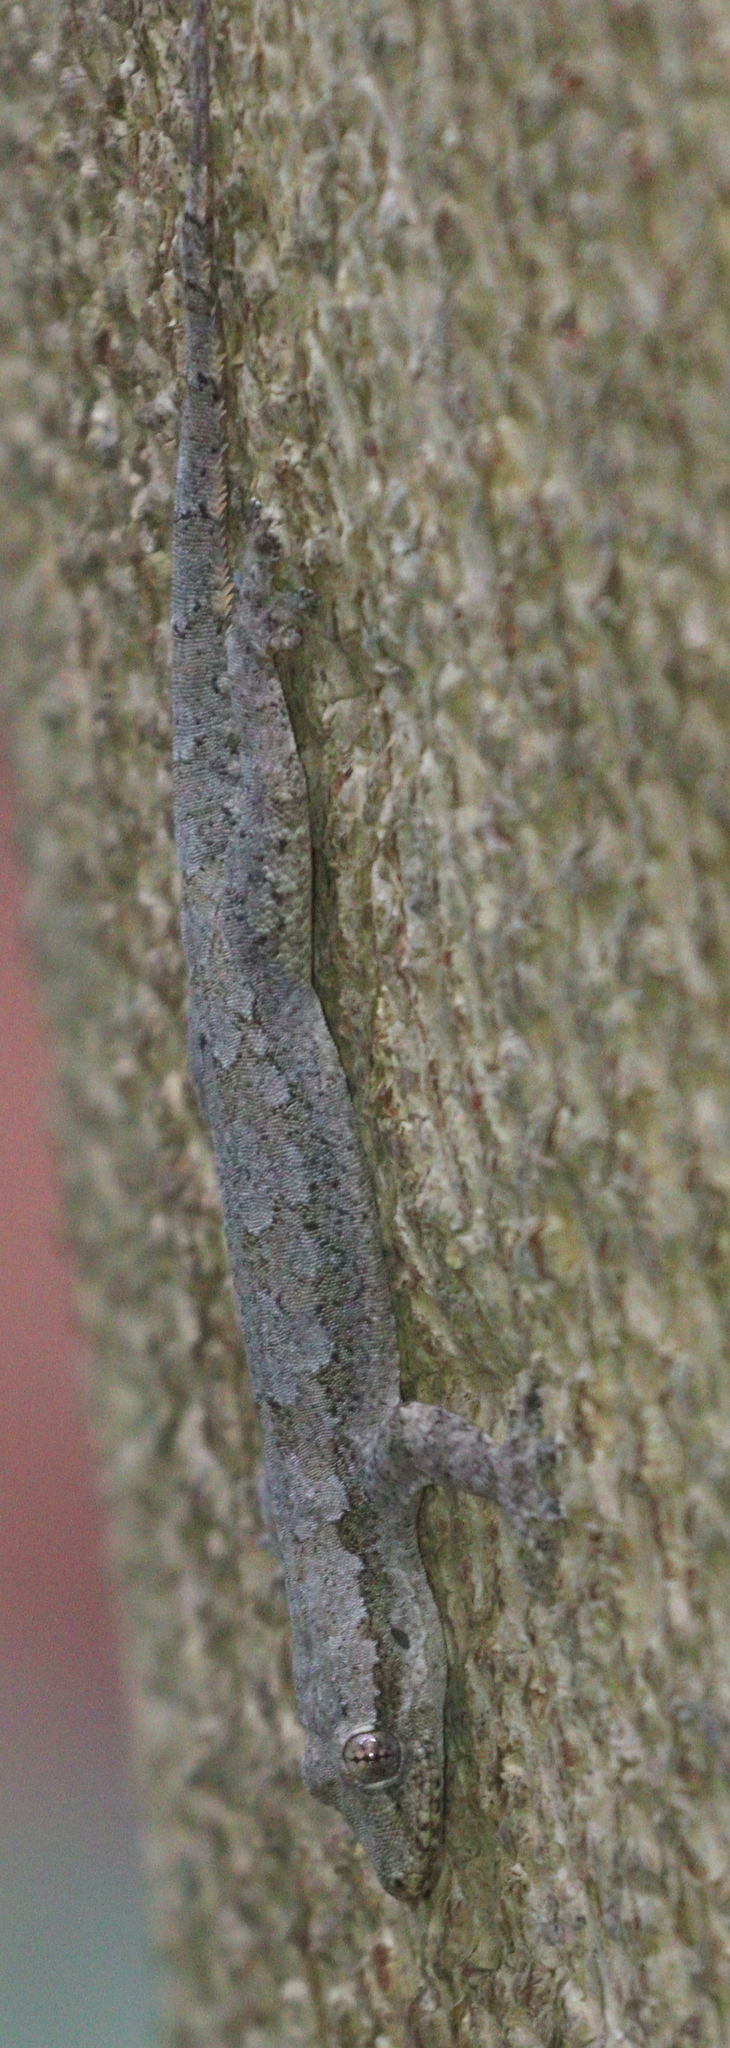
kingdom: Animalia
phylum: Chordata
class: Squamata
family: Gekkonidae
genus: Hemidactylus
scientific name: Hemidactylus platyurus
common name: Flat-tailed house gecko
